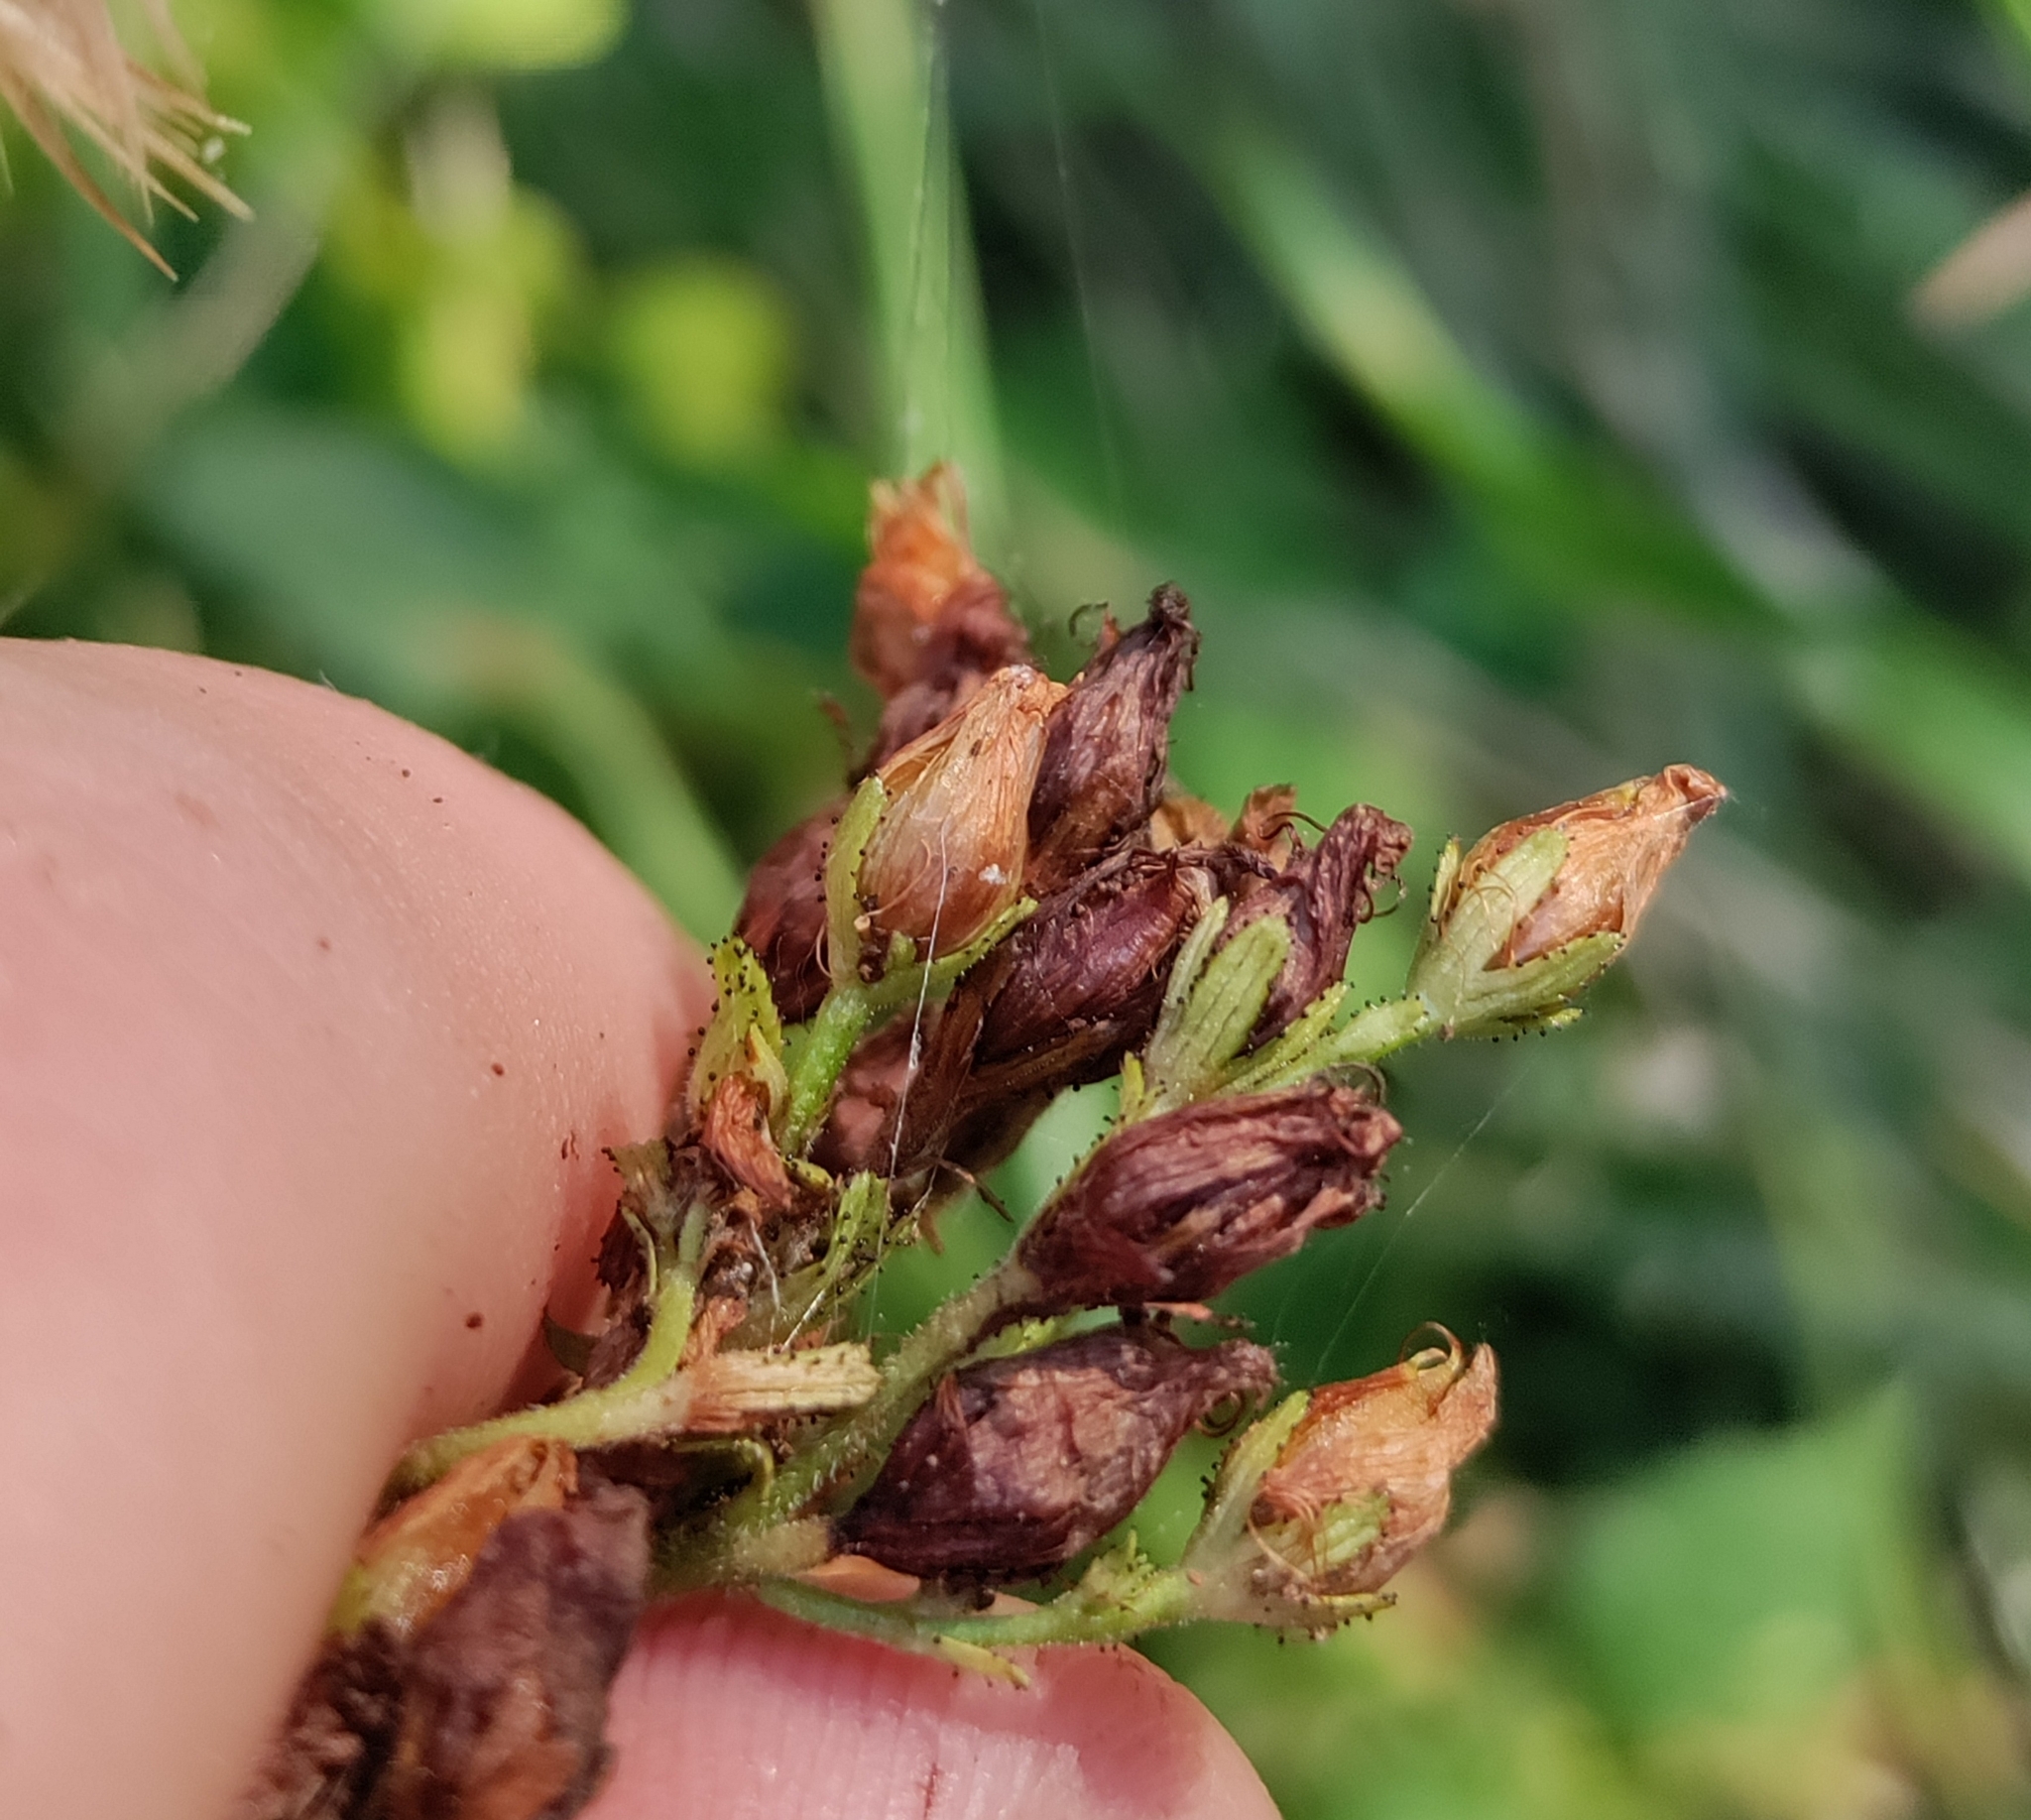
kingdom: Plantae
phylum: Tracheophyta
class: Magnoliopsida
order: Malpighiales
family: Hypericaceae
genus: Hypericum
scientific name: Hypericum hirsutum
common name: Hairy st. john's-wort
